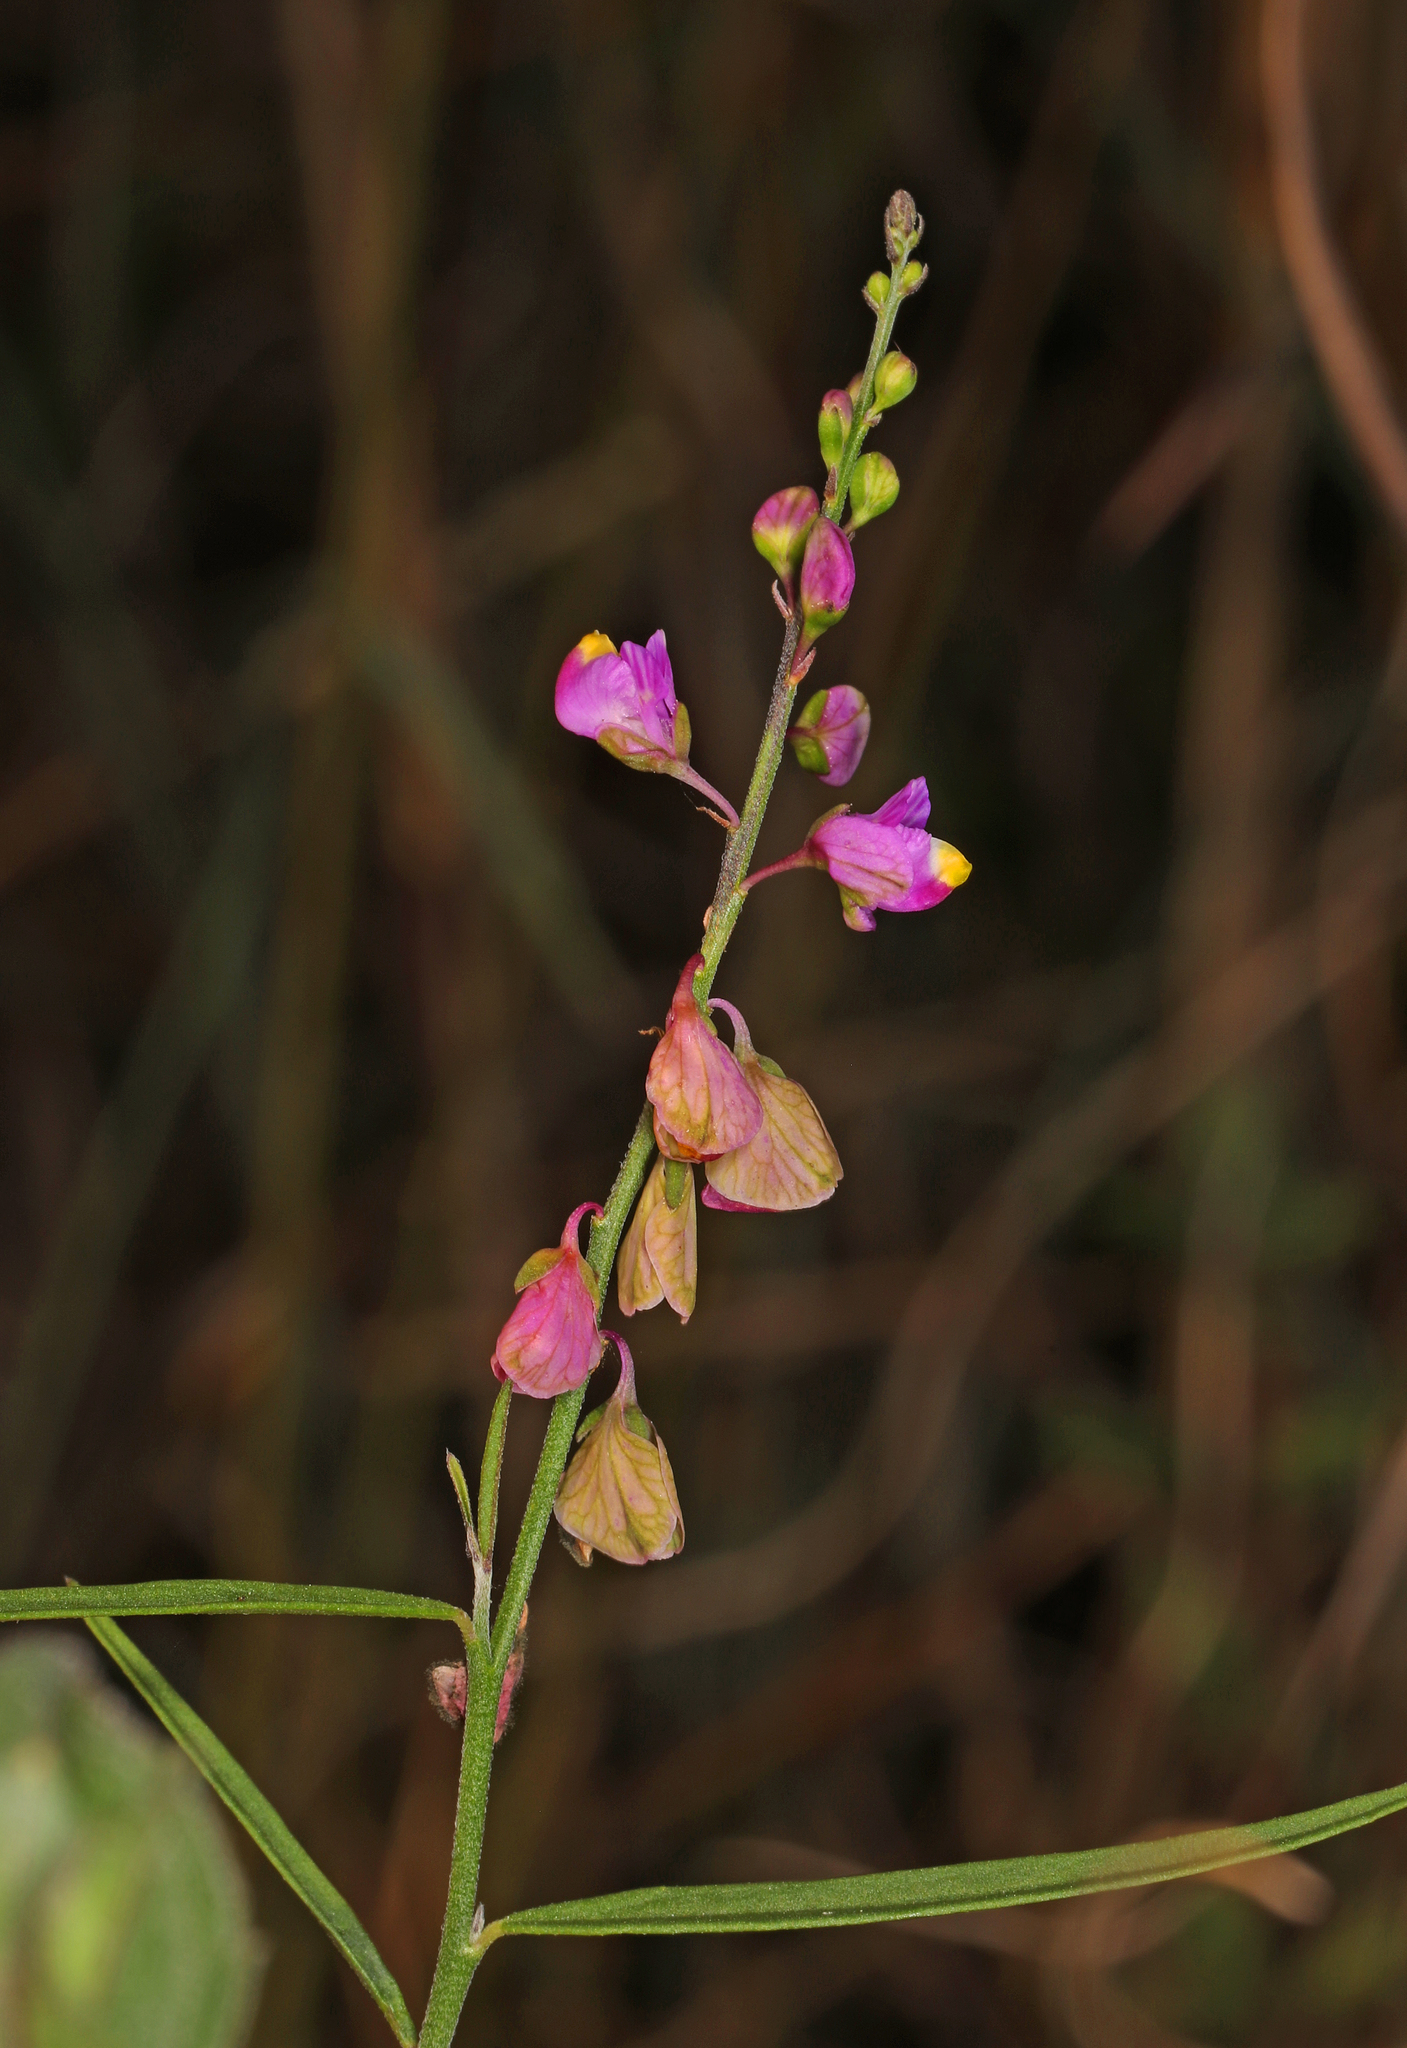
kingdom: Plantae
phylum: Tracheophyta
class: Magnoliopsida
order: Fabales
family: Polygalaceae
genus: Asemeia
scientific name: Asemeia grandiflora
